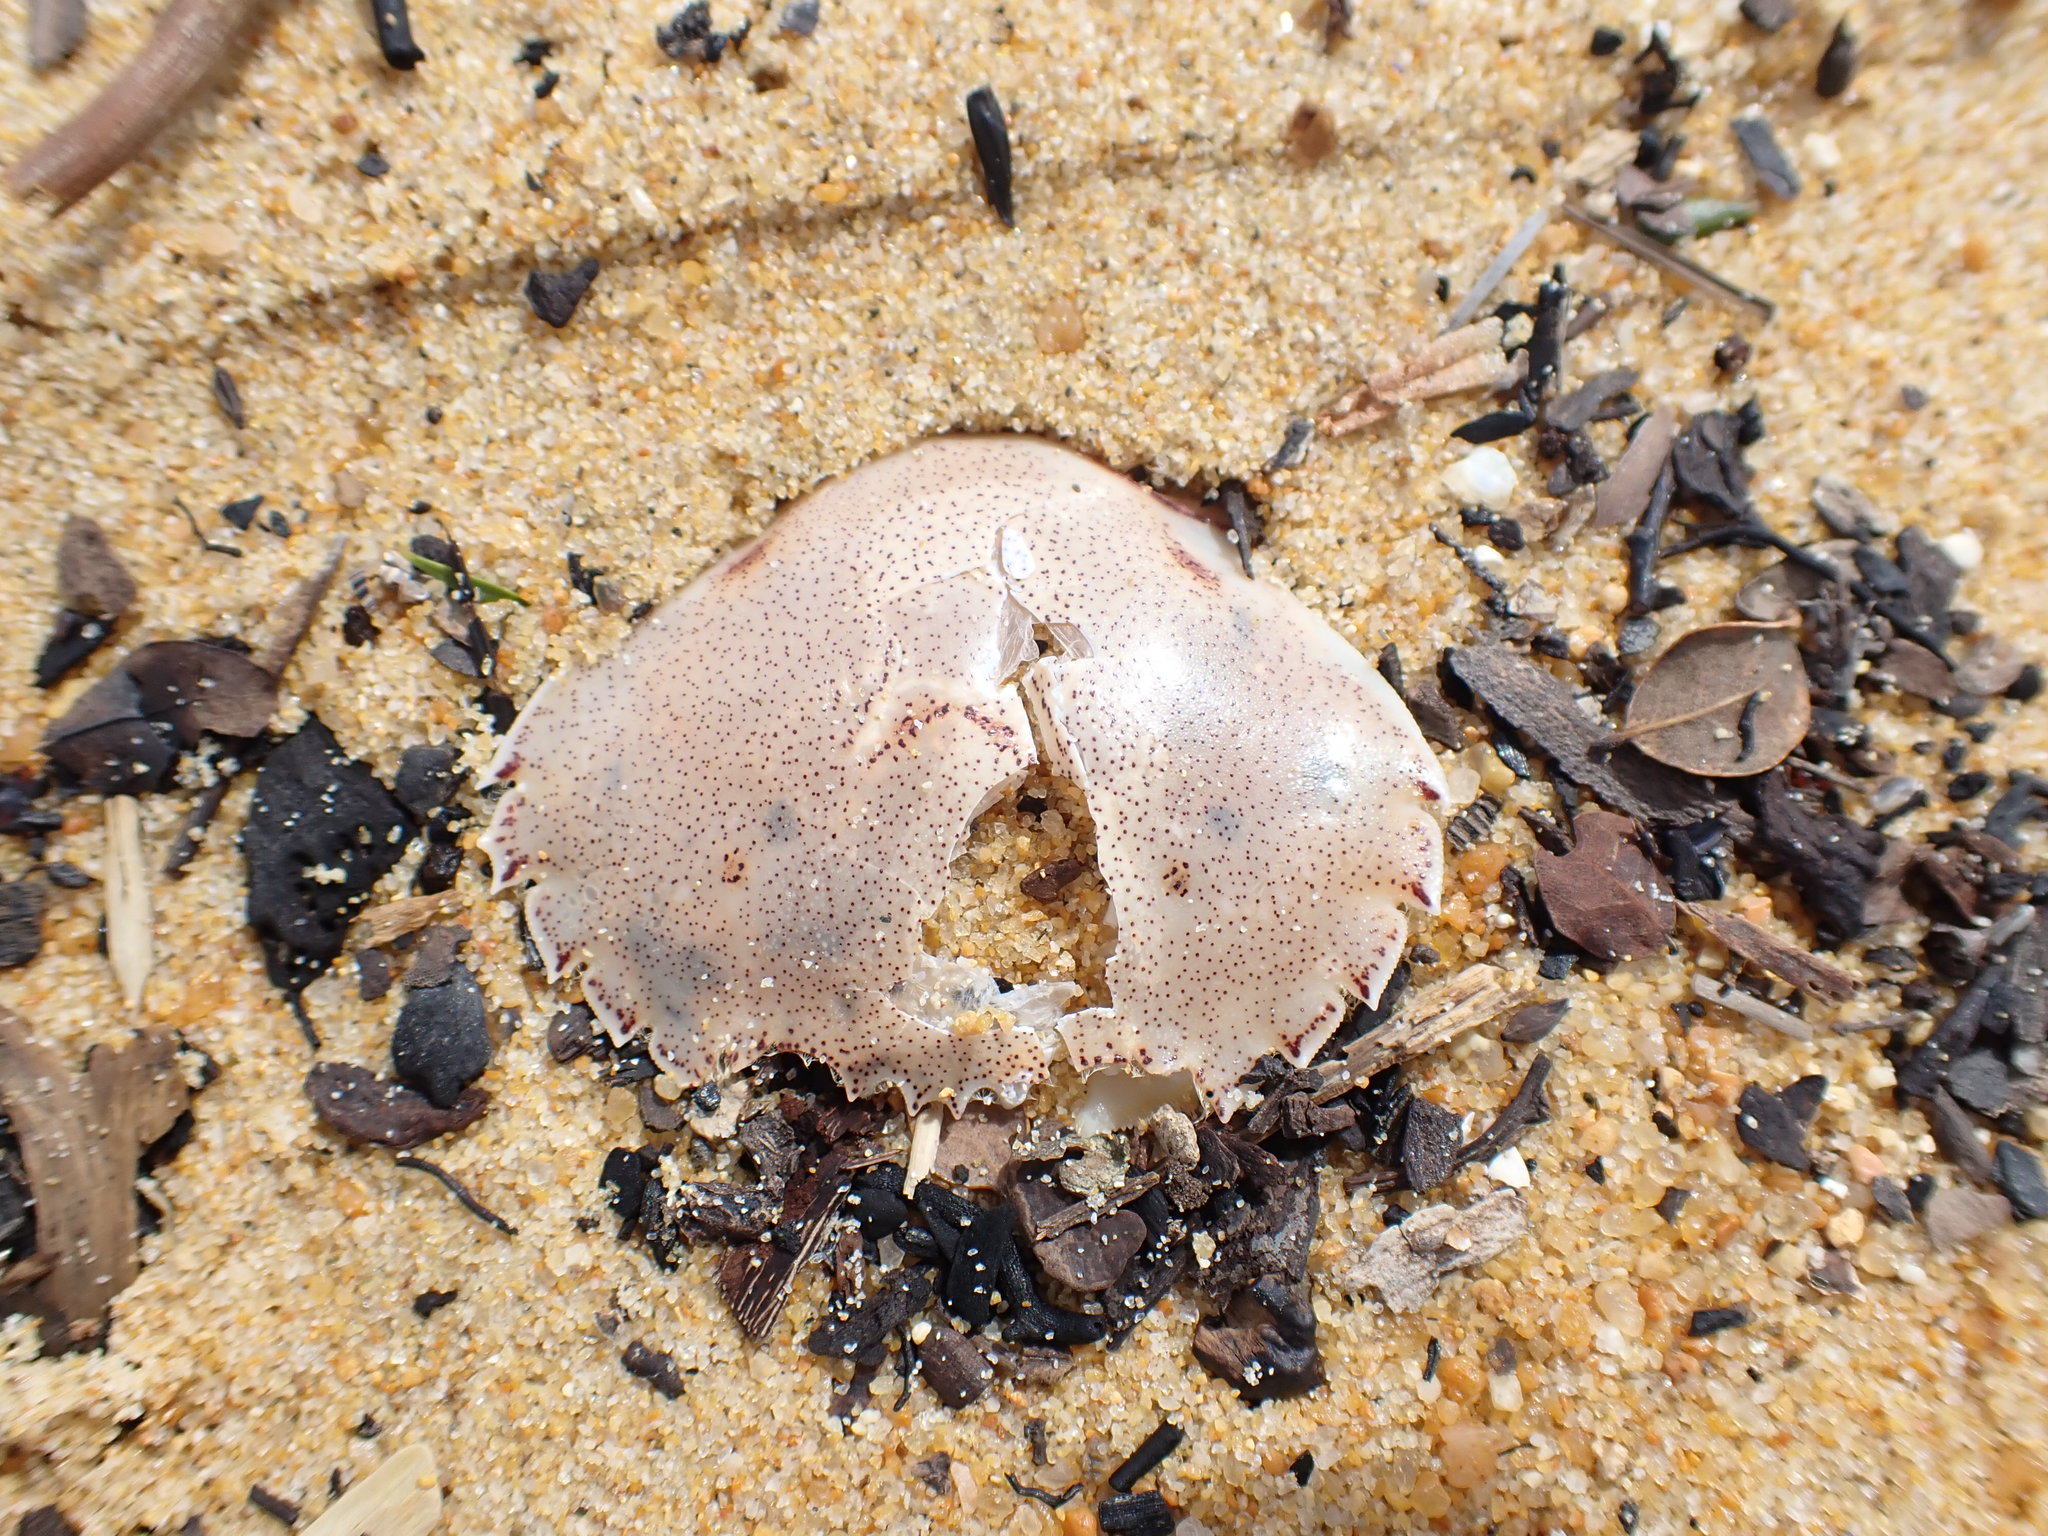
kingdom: Animalia
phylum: Arthropoda
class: Malacostraca
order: Decapoda
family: Ovalipidae
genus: Ovalipes
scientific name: Ovalipes catharus
